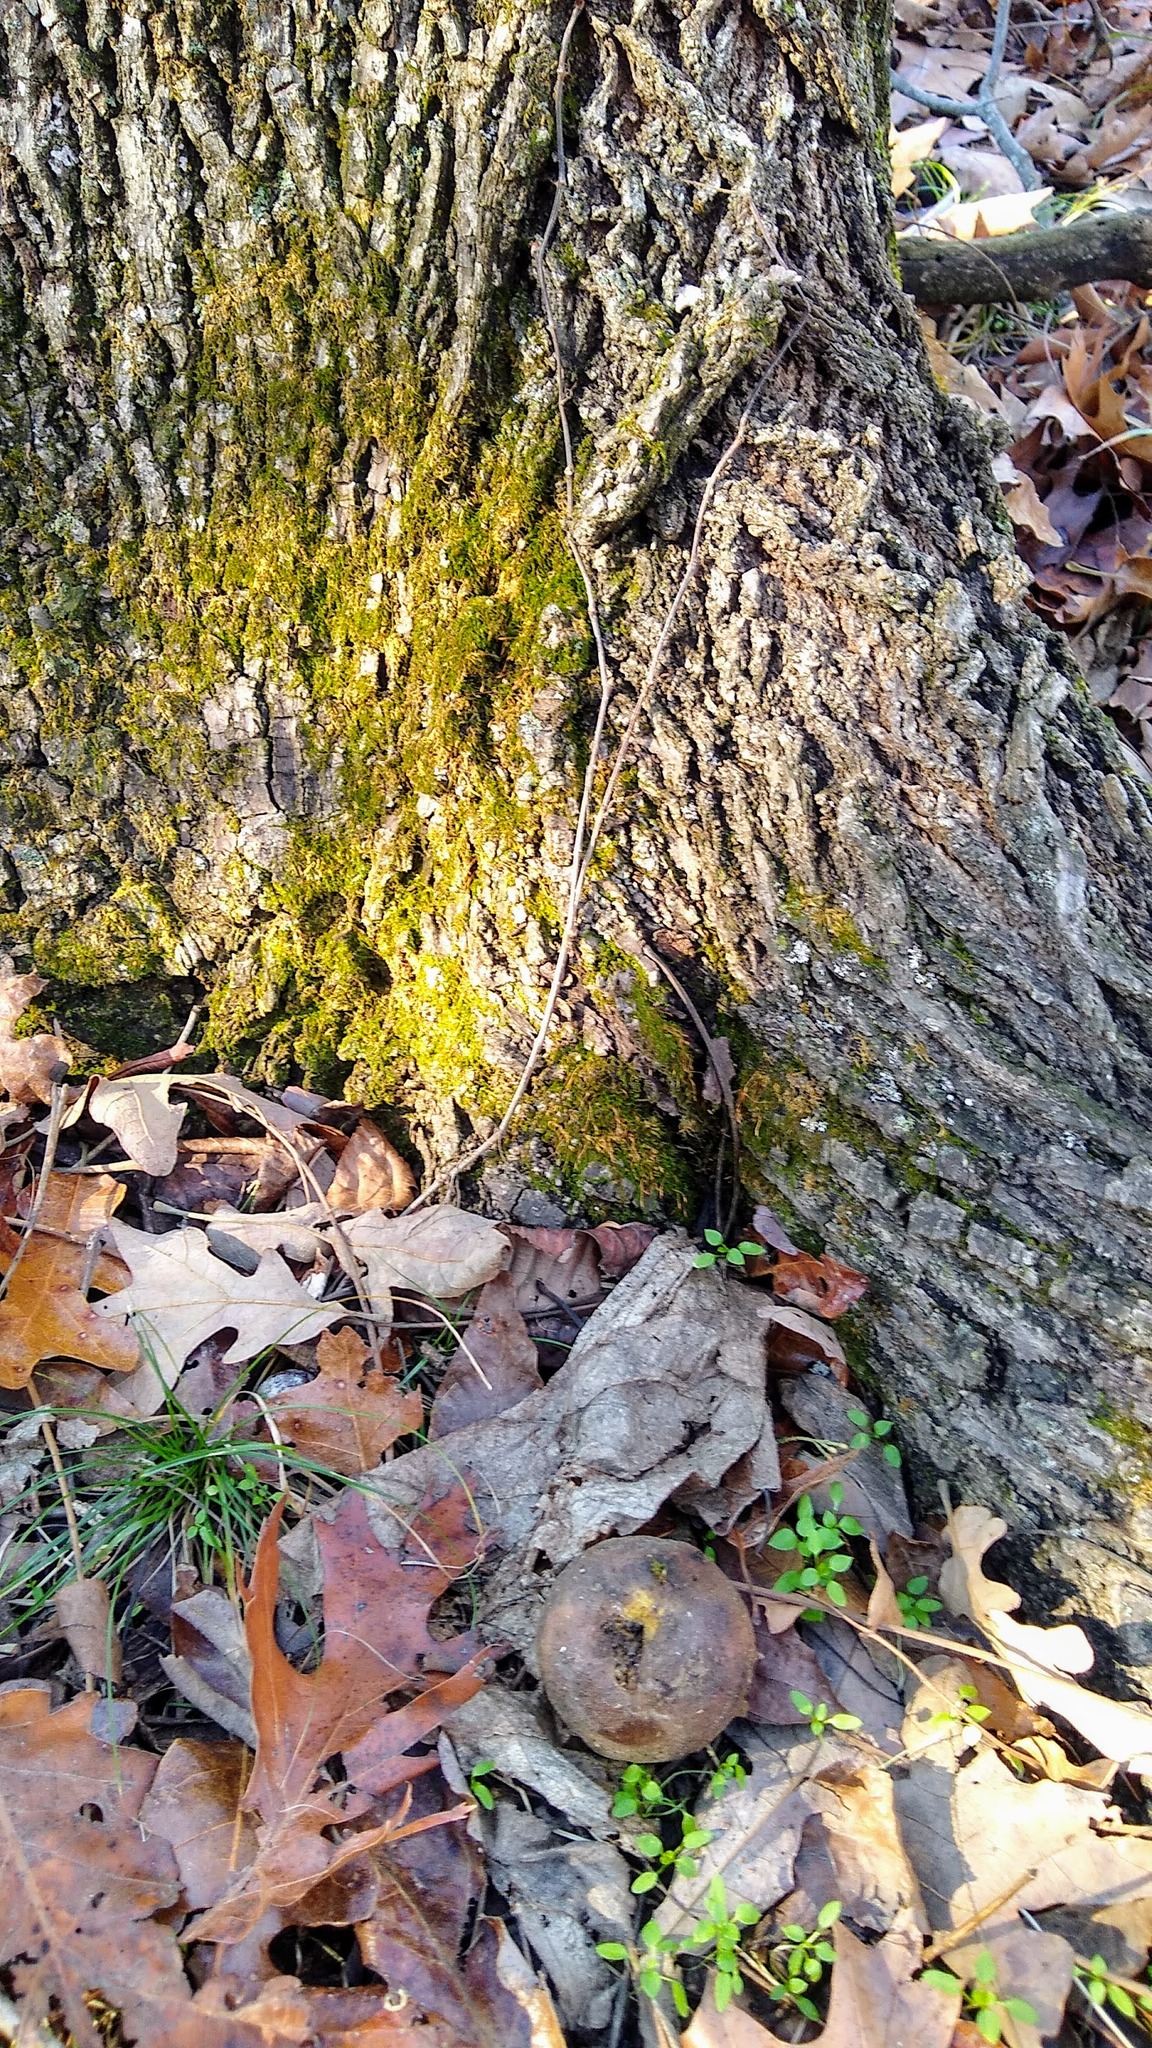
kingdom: Plantae
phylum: Tracheophyta
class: Magnoliopsida
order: Fagales
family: Juglandaceae
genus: Juglans
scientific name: Juglans nigra
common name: Black walnut
